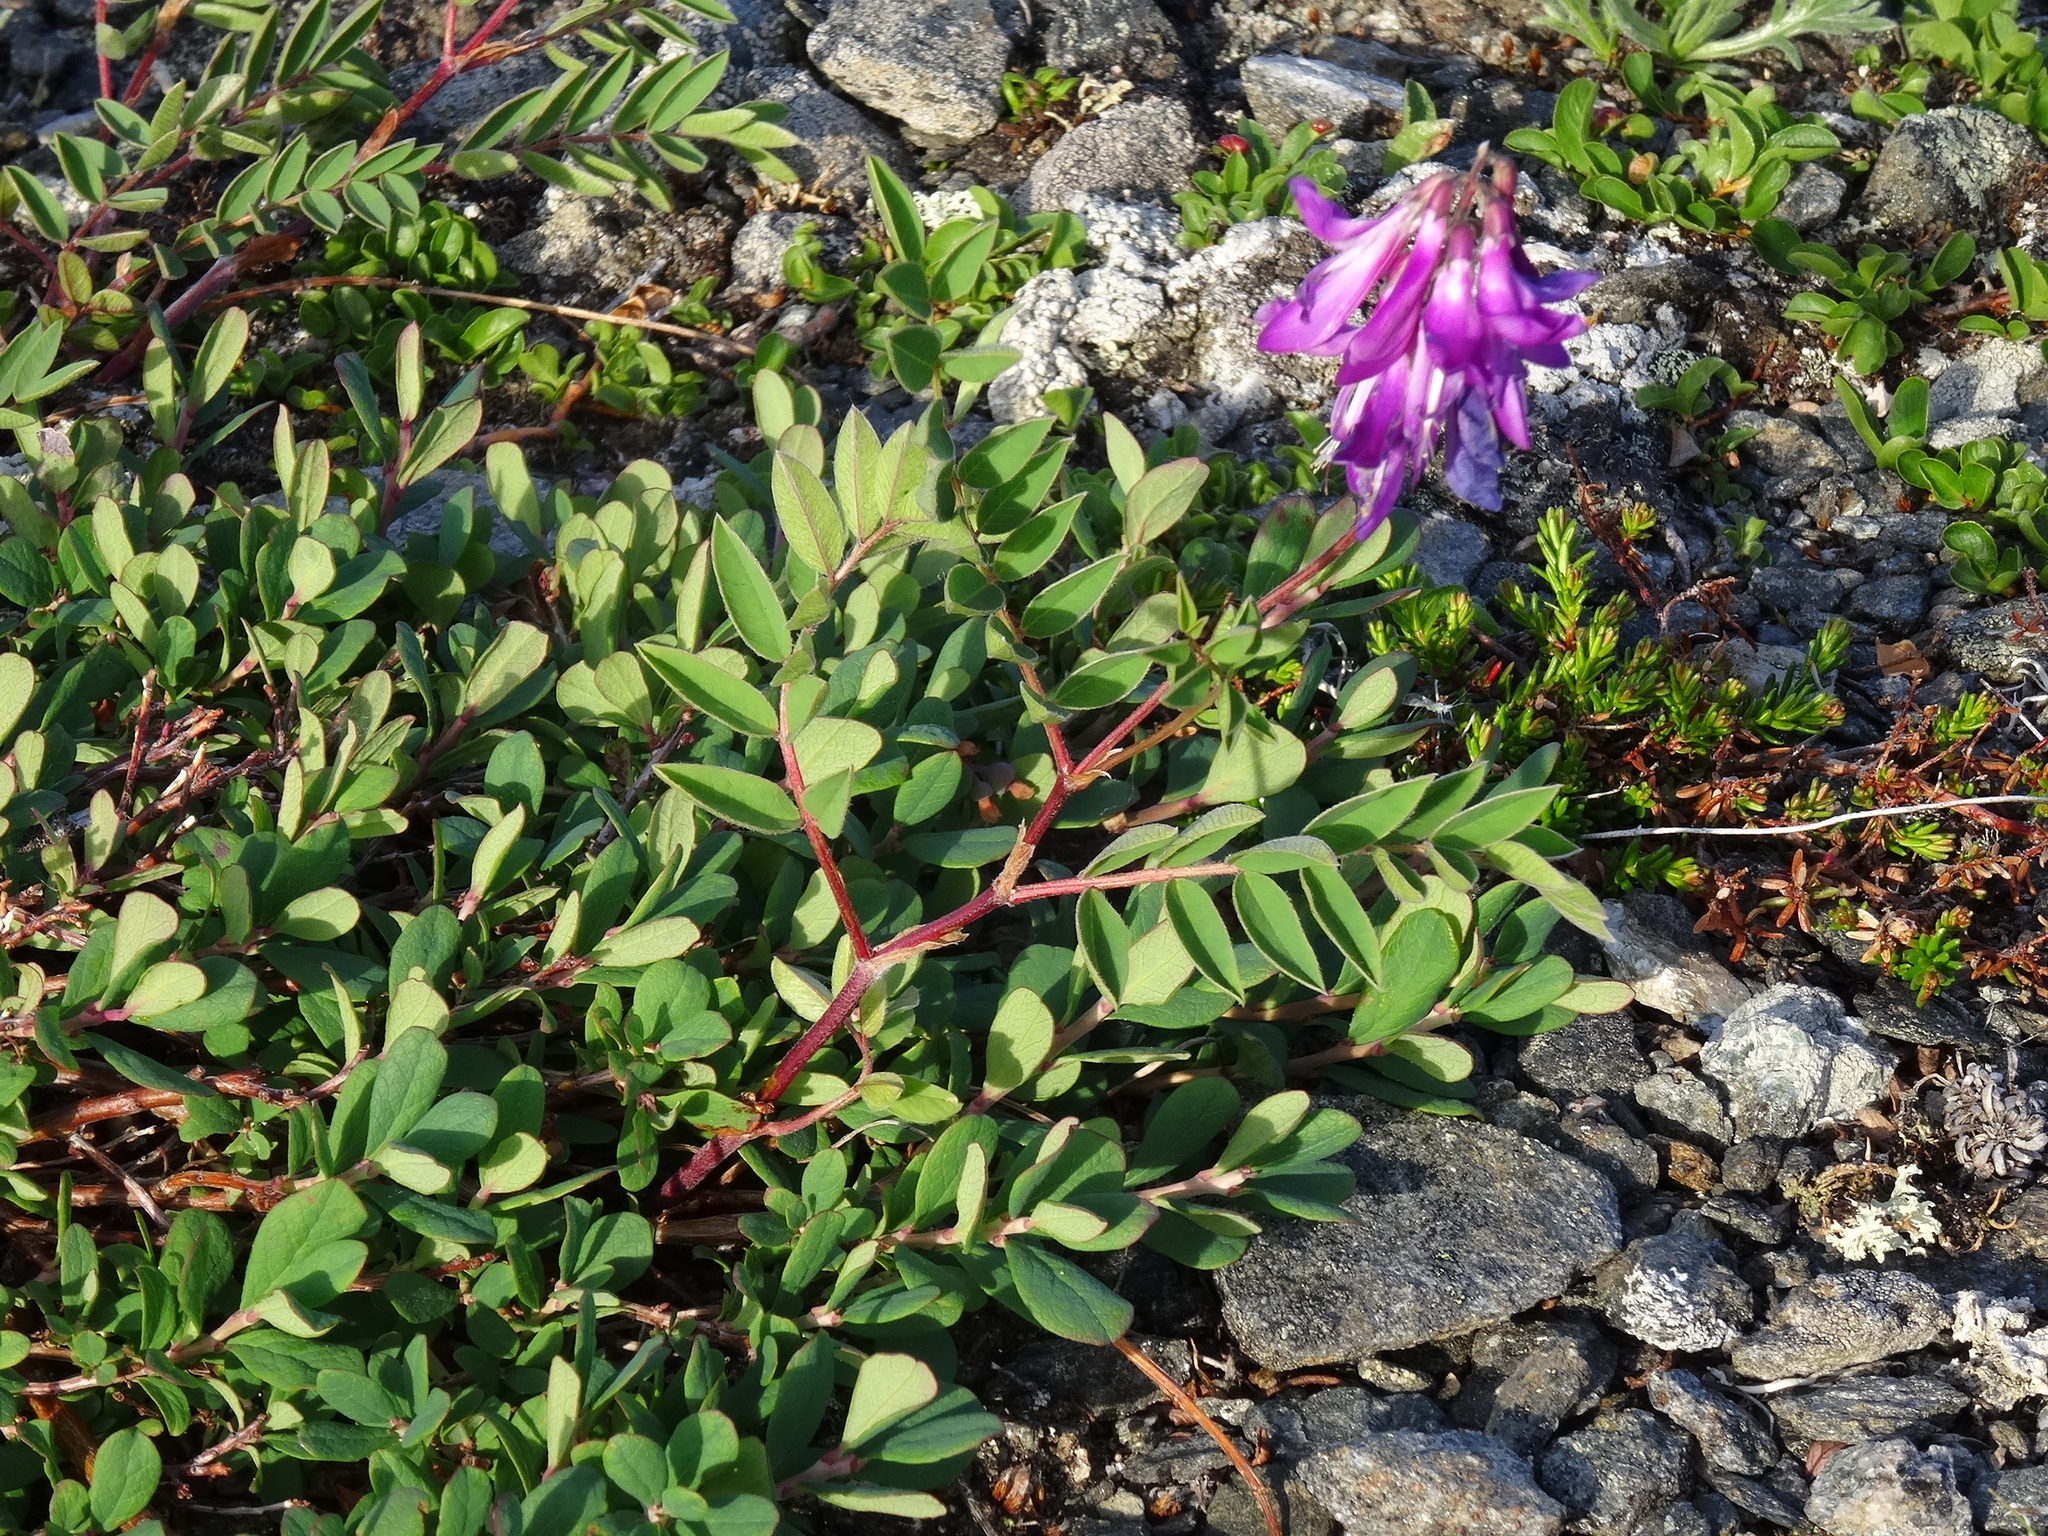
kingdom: Plantae
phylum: Tracheophyta
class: Magnoliopsida
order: Fabales
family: Fabaceae
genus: Hedysarum
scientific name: Hedysarum alpinum
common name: Alpine sweet-vetch
